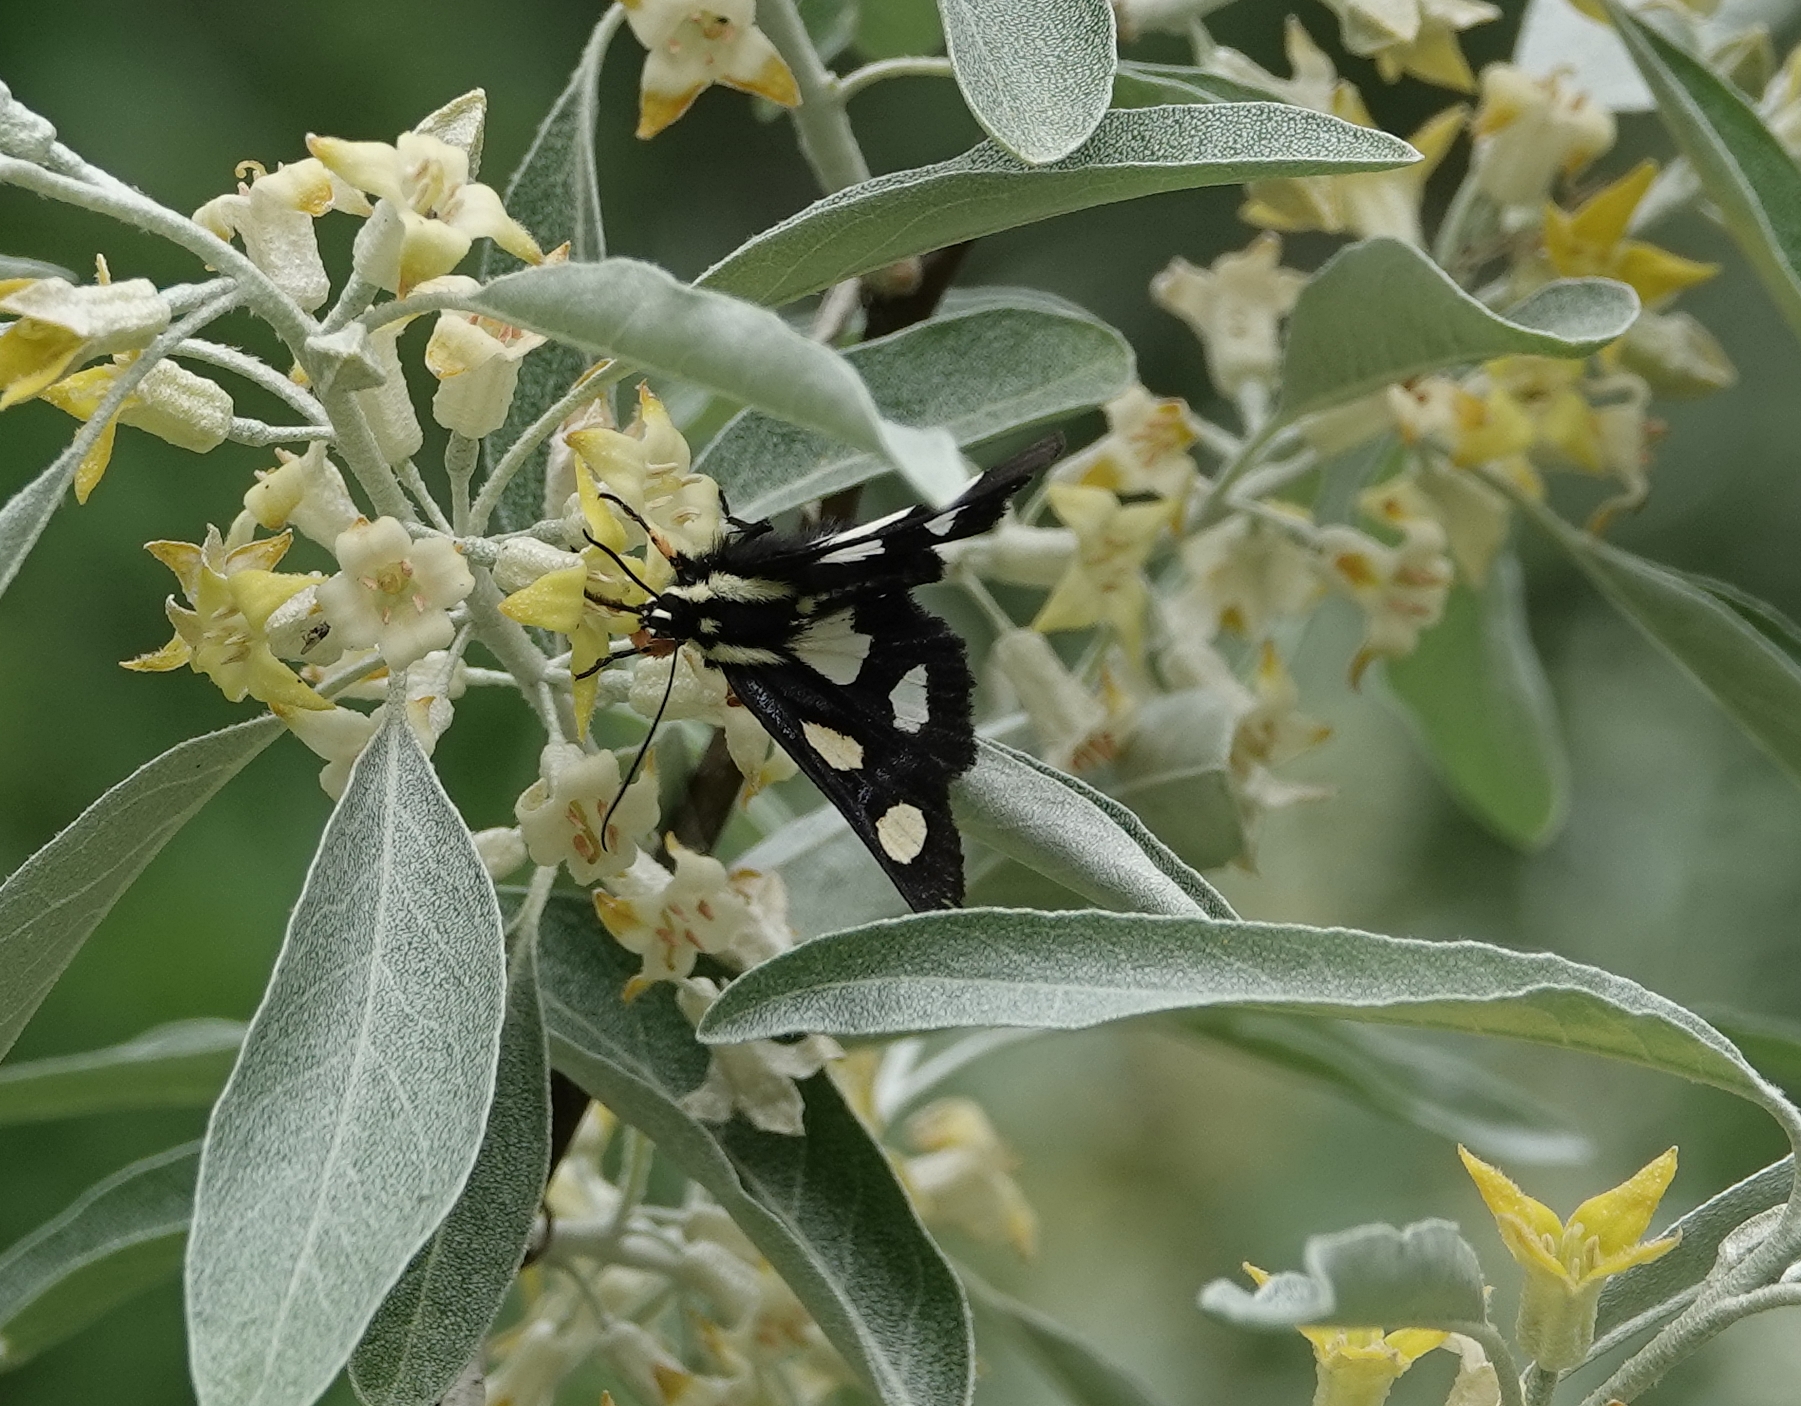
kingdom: Animalia
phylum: Arthropoda
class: Insecta
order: Lepidoptera
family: Noctuidae
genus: Alypia
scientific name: Alypia octomaculata
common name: Eight-spotted forester
